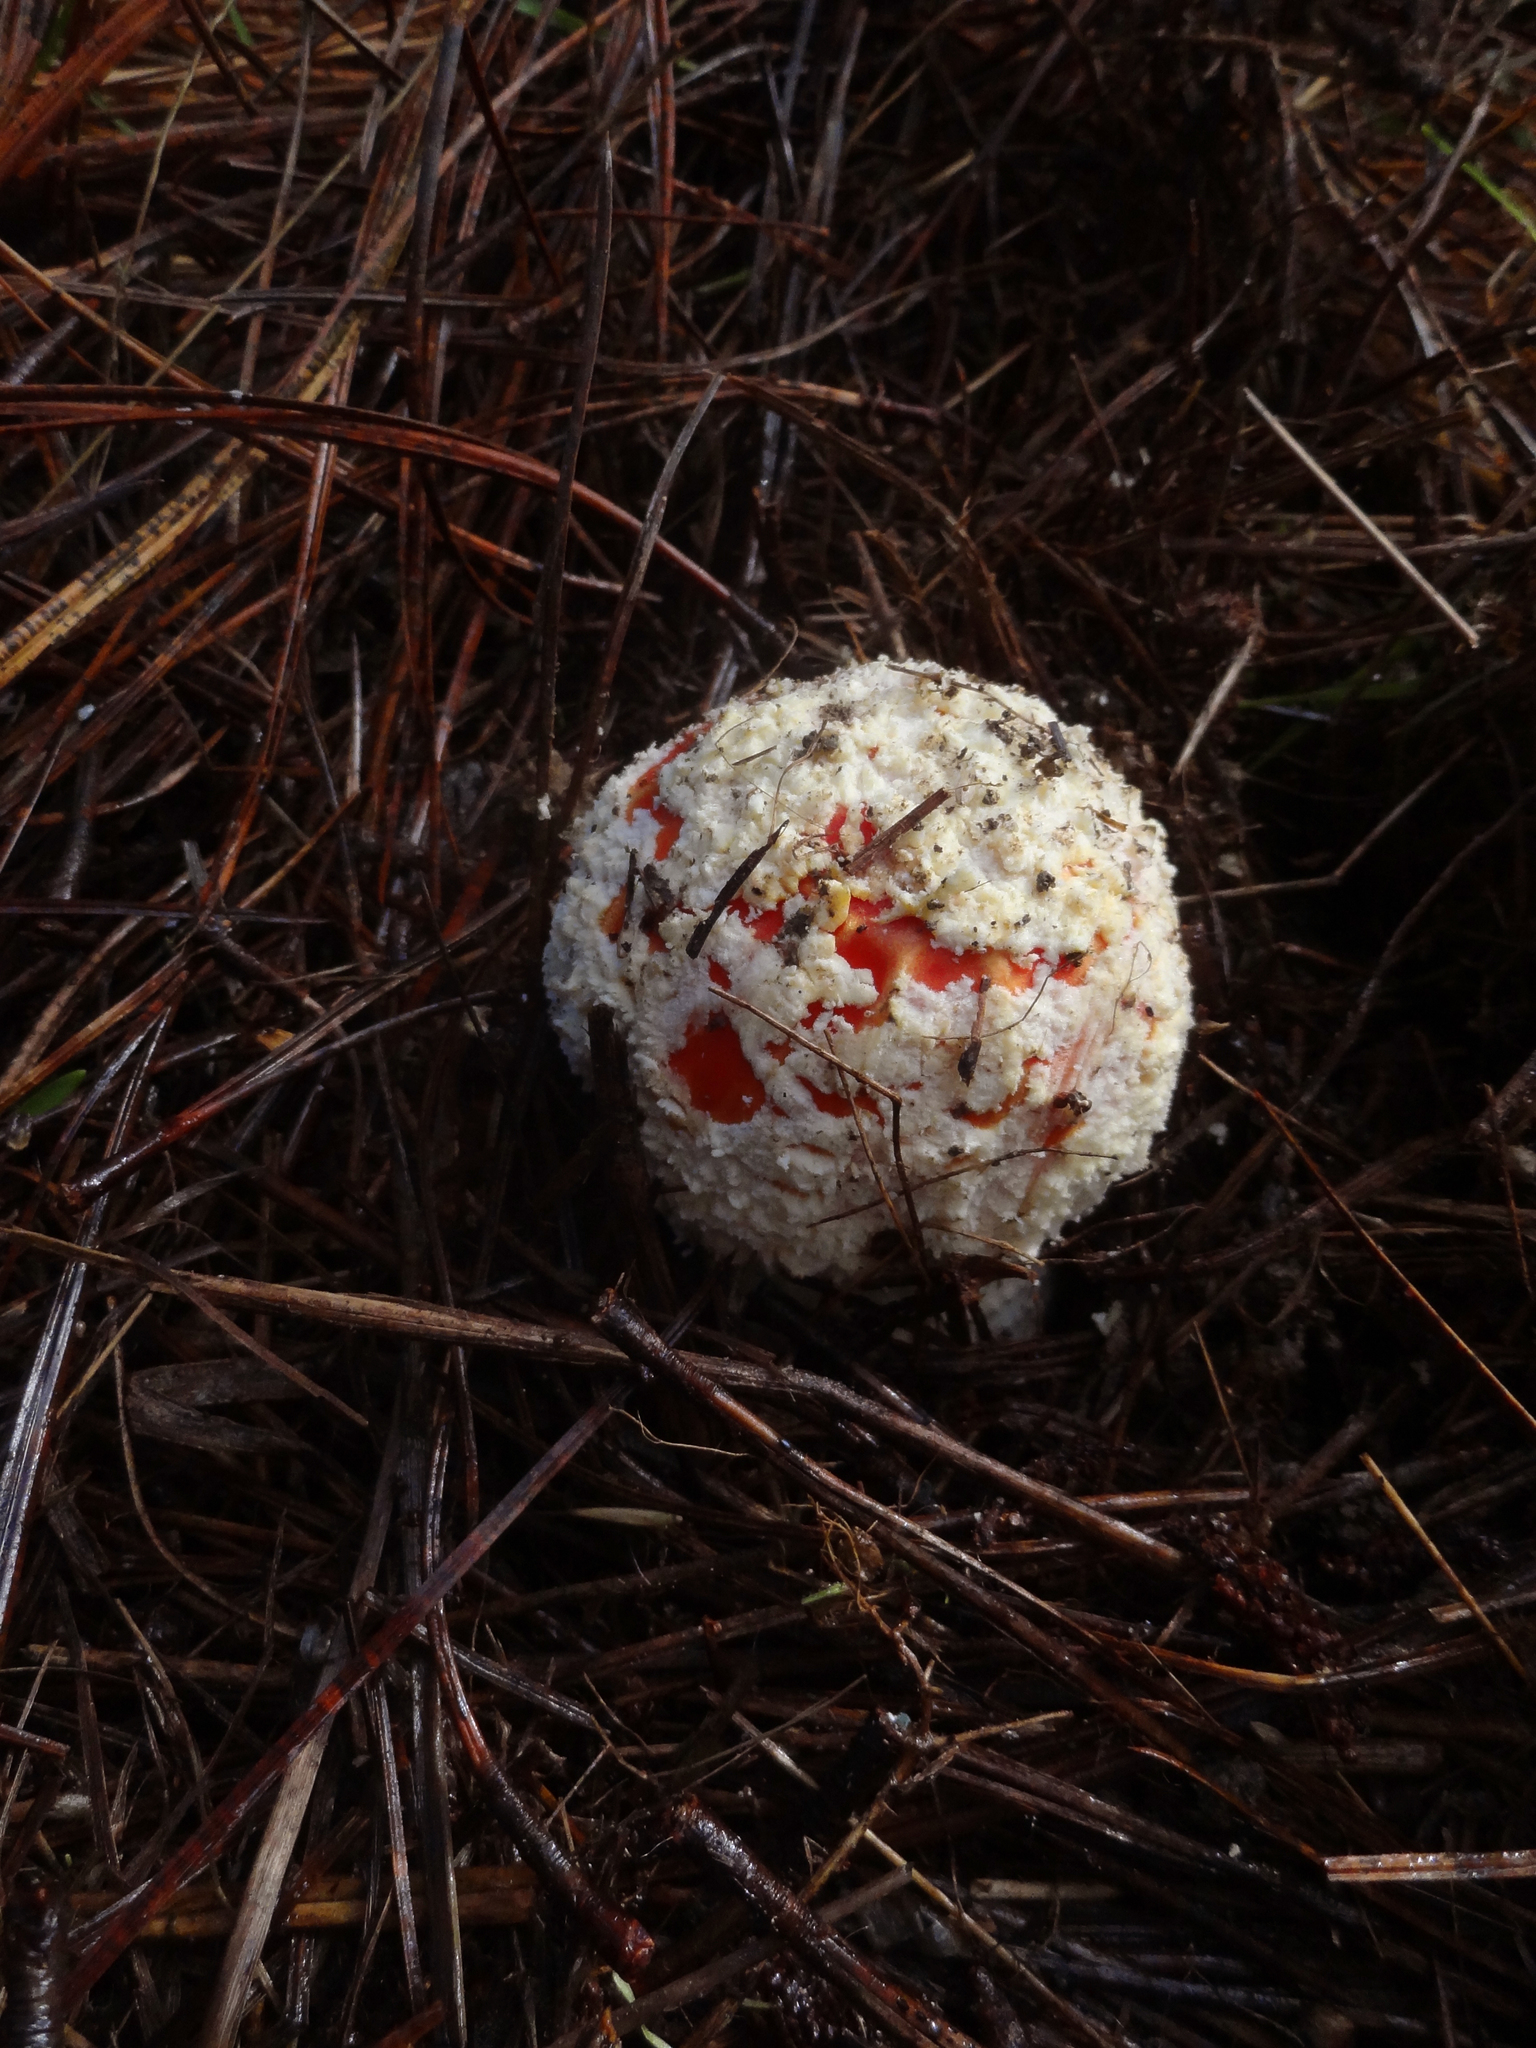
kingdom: Fungi
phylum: Basidiomycota
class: Agaricomycetes
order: Agaricales
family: Amanitaceae
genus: Amanita
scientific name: Amanita muscaria
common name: Fly agaric
